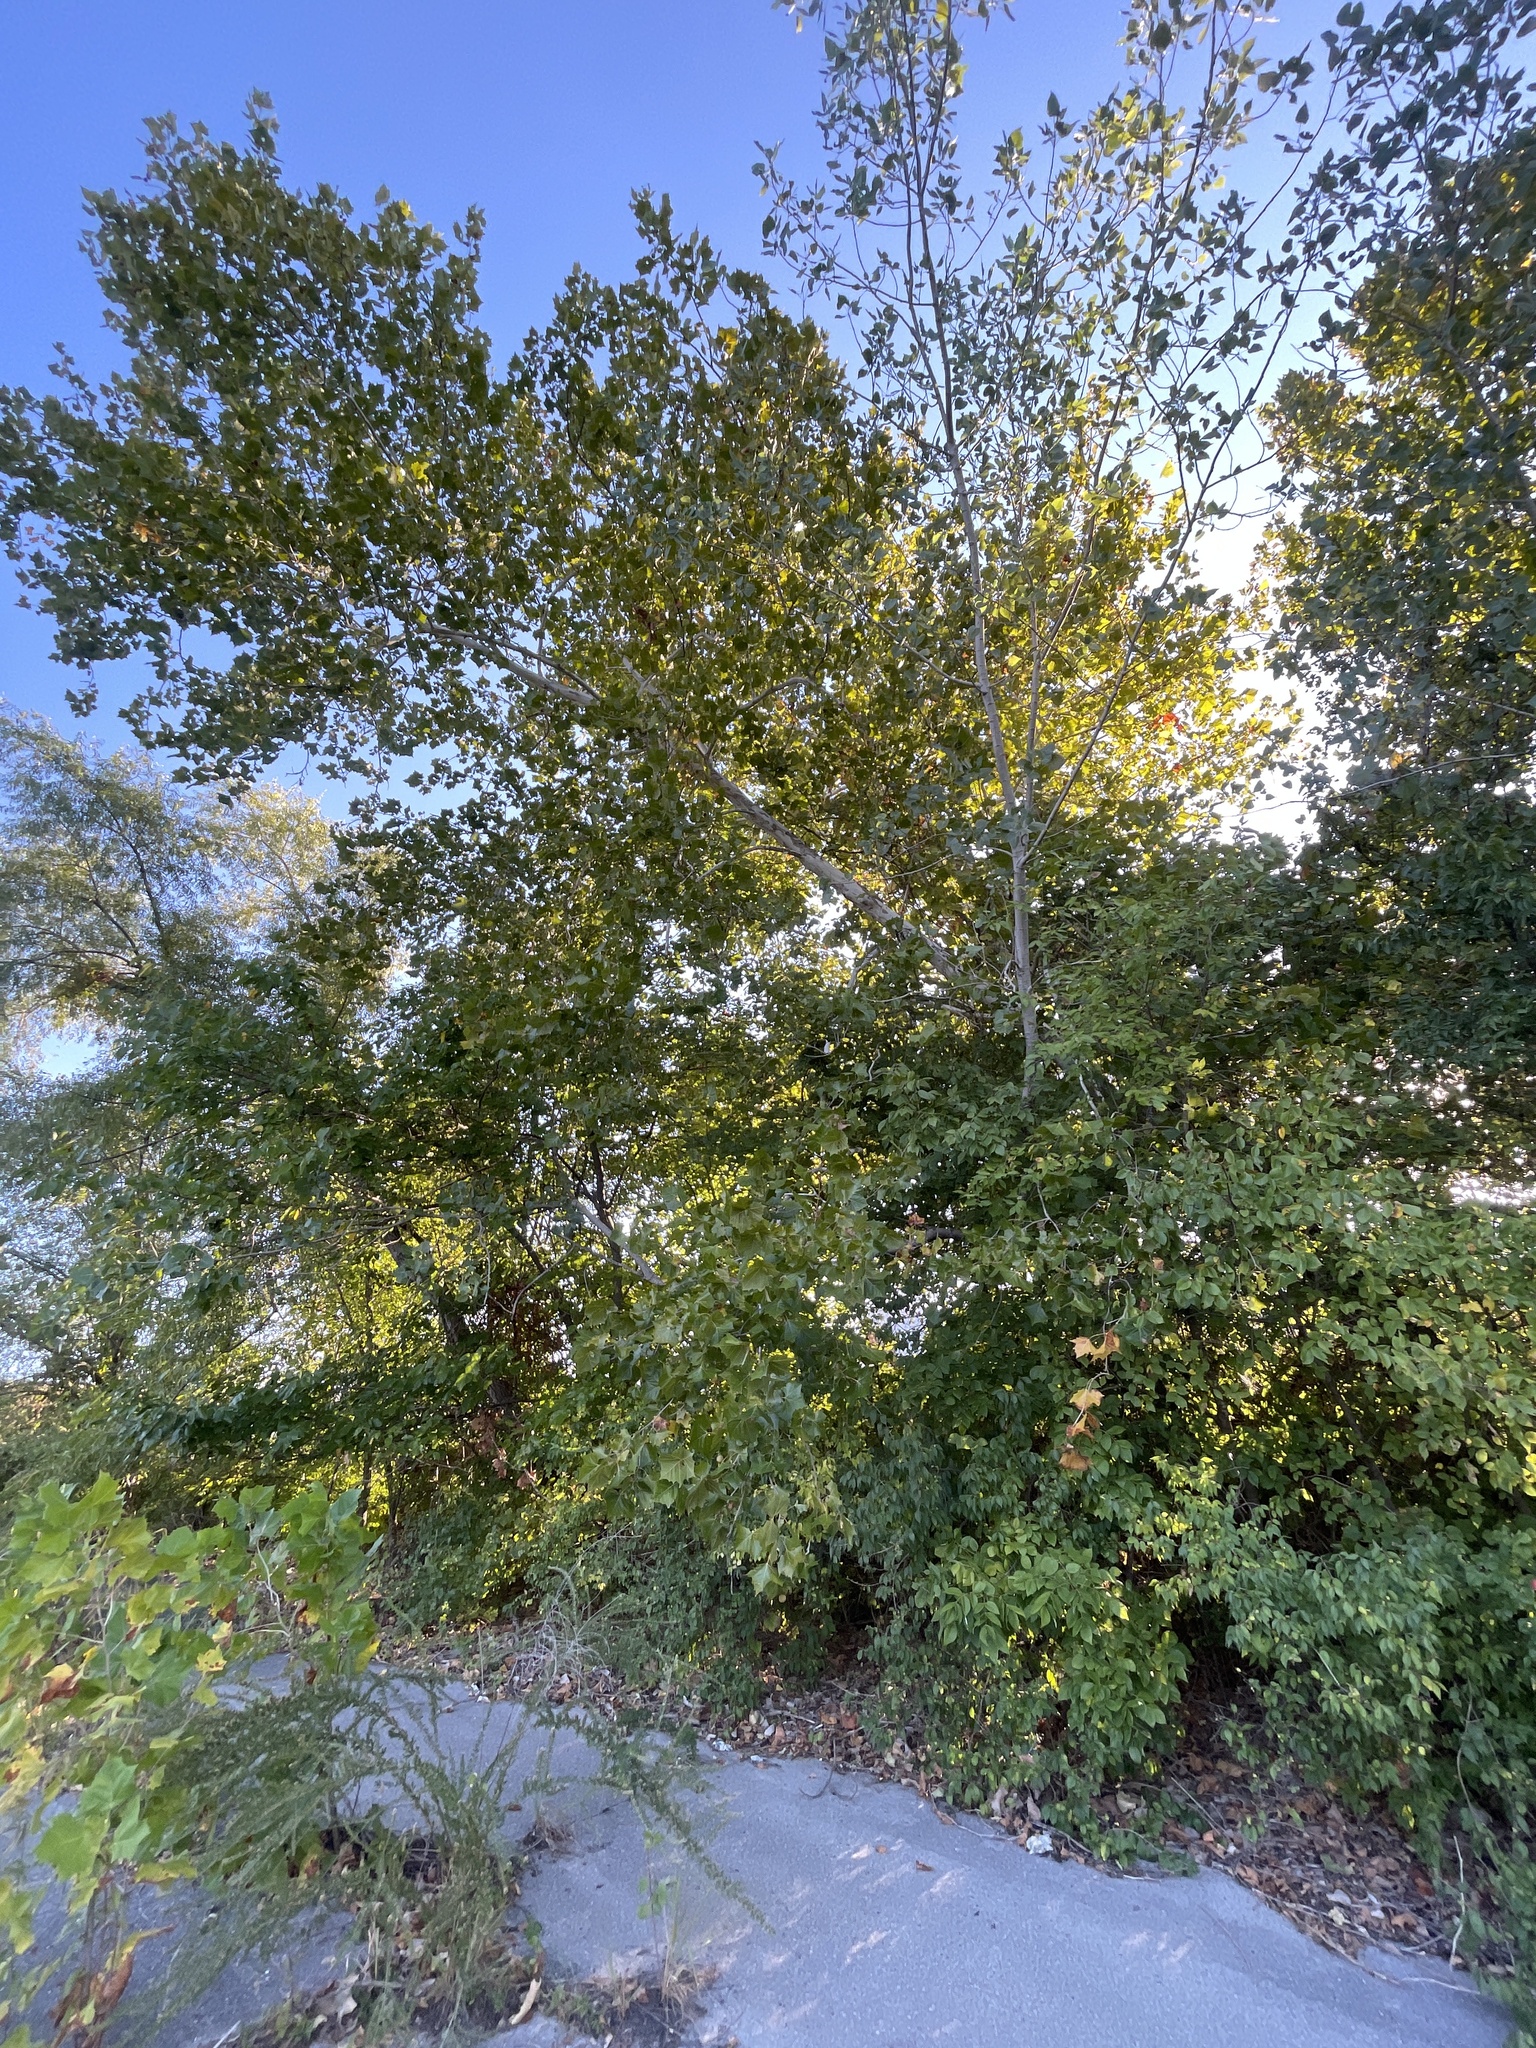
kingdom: Plantae
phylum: Tracheophyta
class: Magnoliopsida
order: Proteales
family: Platanaceae
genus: Platanus
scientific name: Platanus occidentalis
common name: American sycamore
